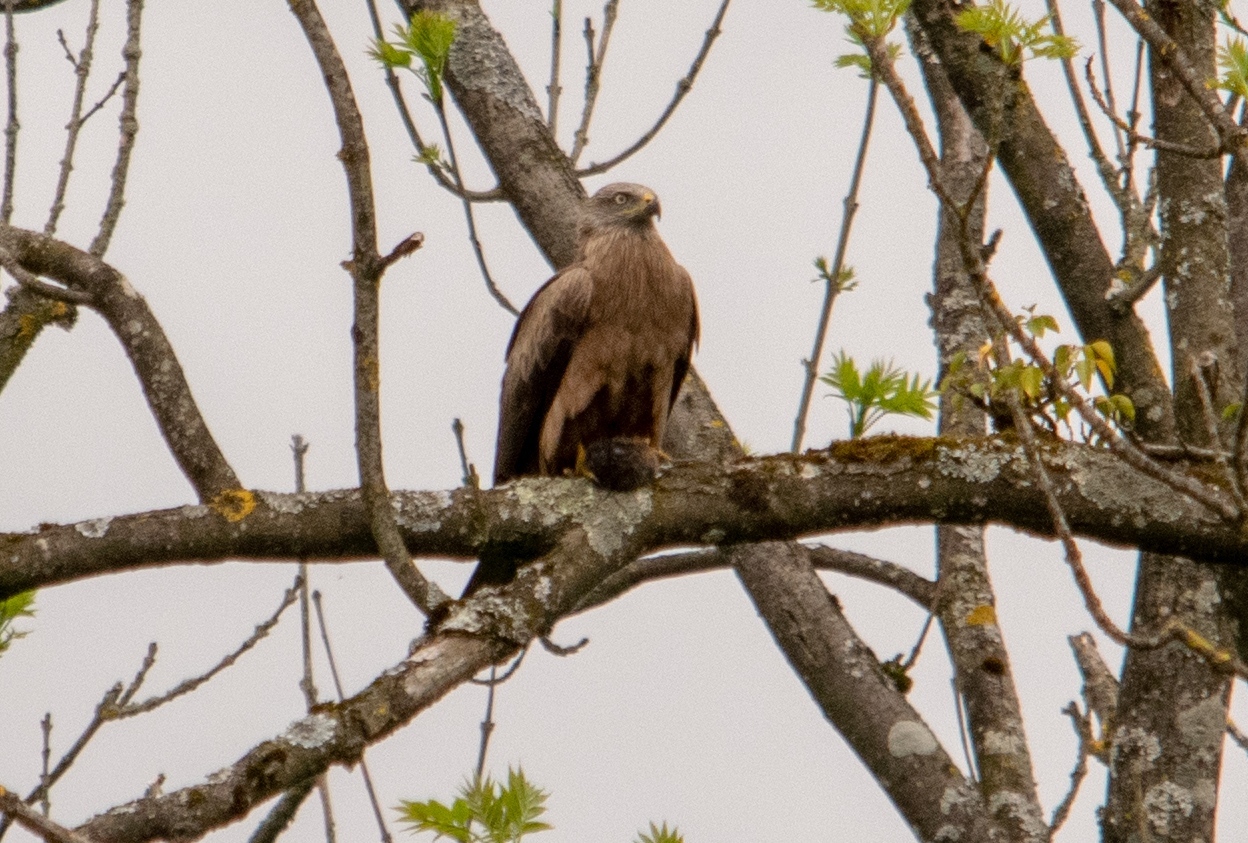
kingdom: Animalia
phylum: Chordata
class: Aves
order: Accipitriformes
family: Accipitridae
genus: Milvus
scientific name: Milvus migrans
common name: Black kite
